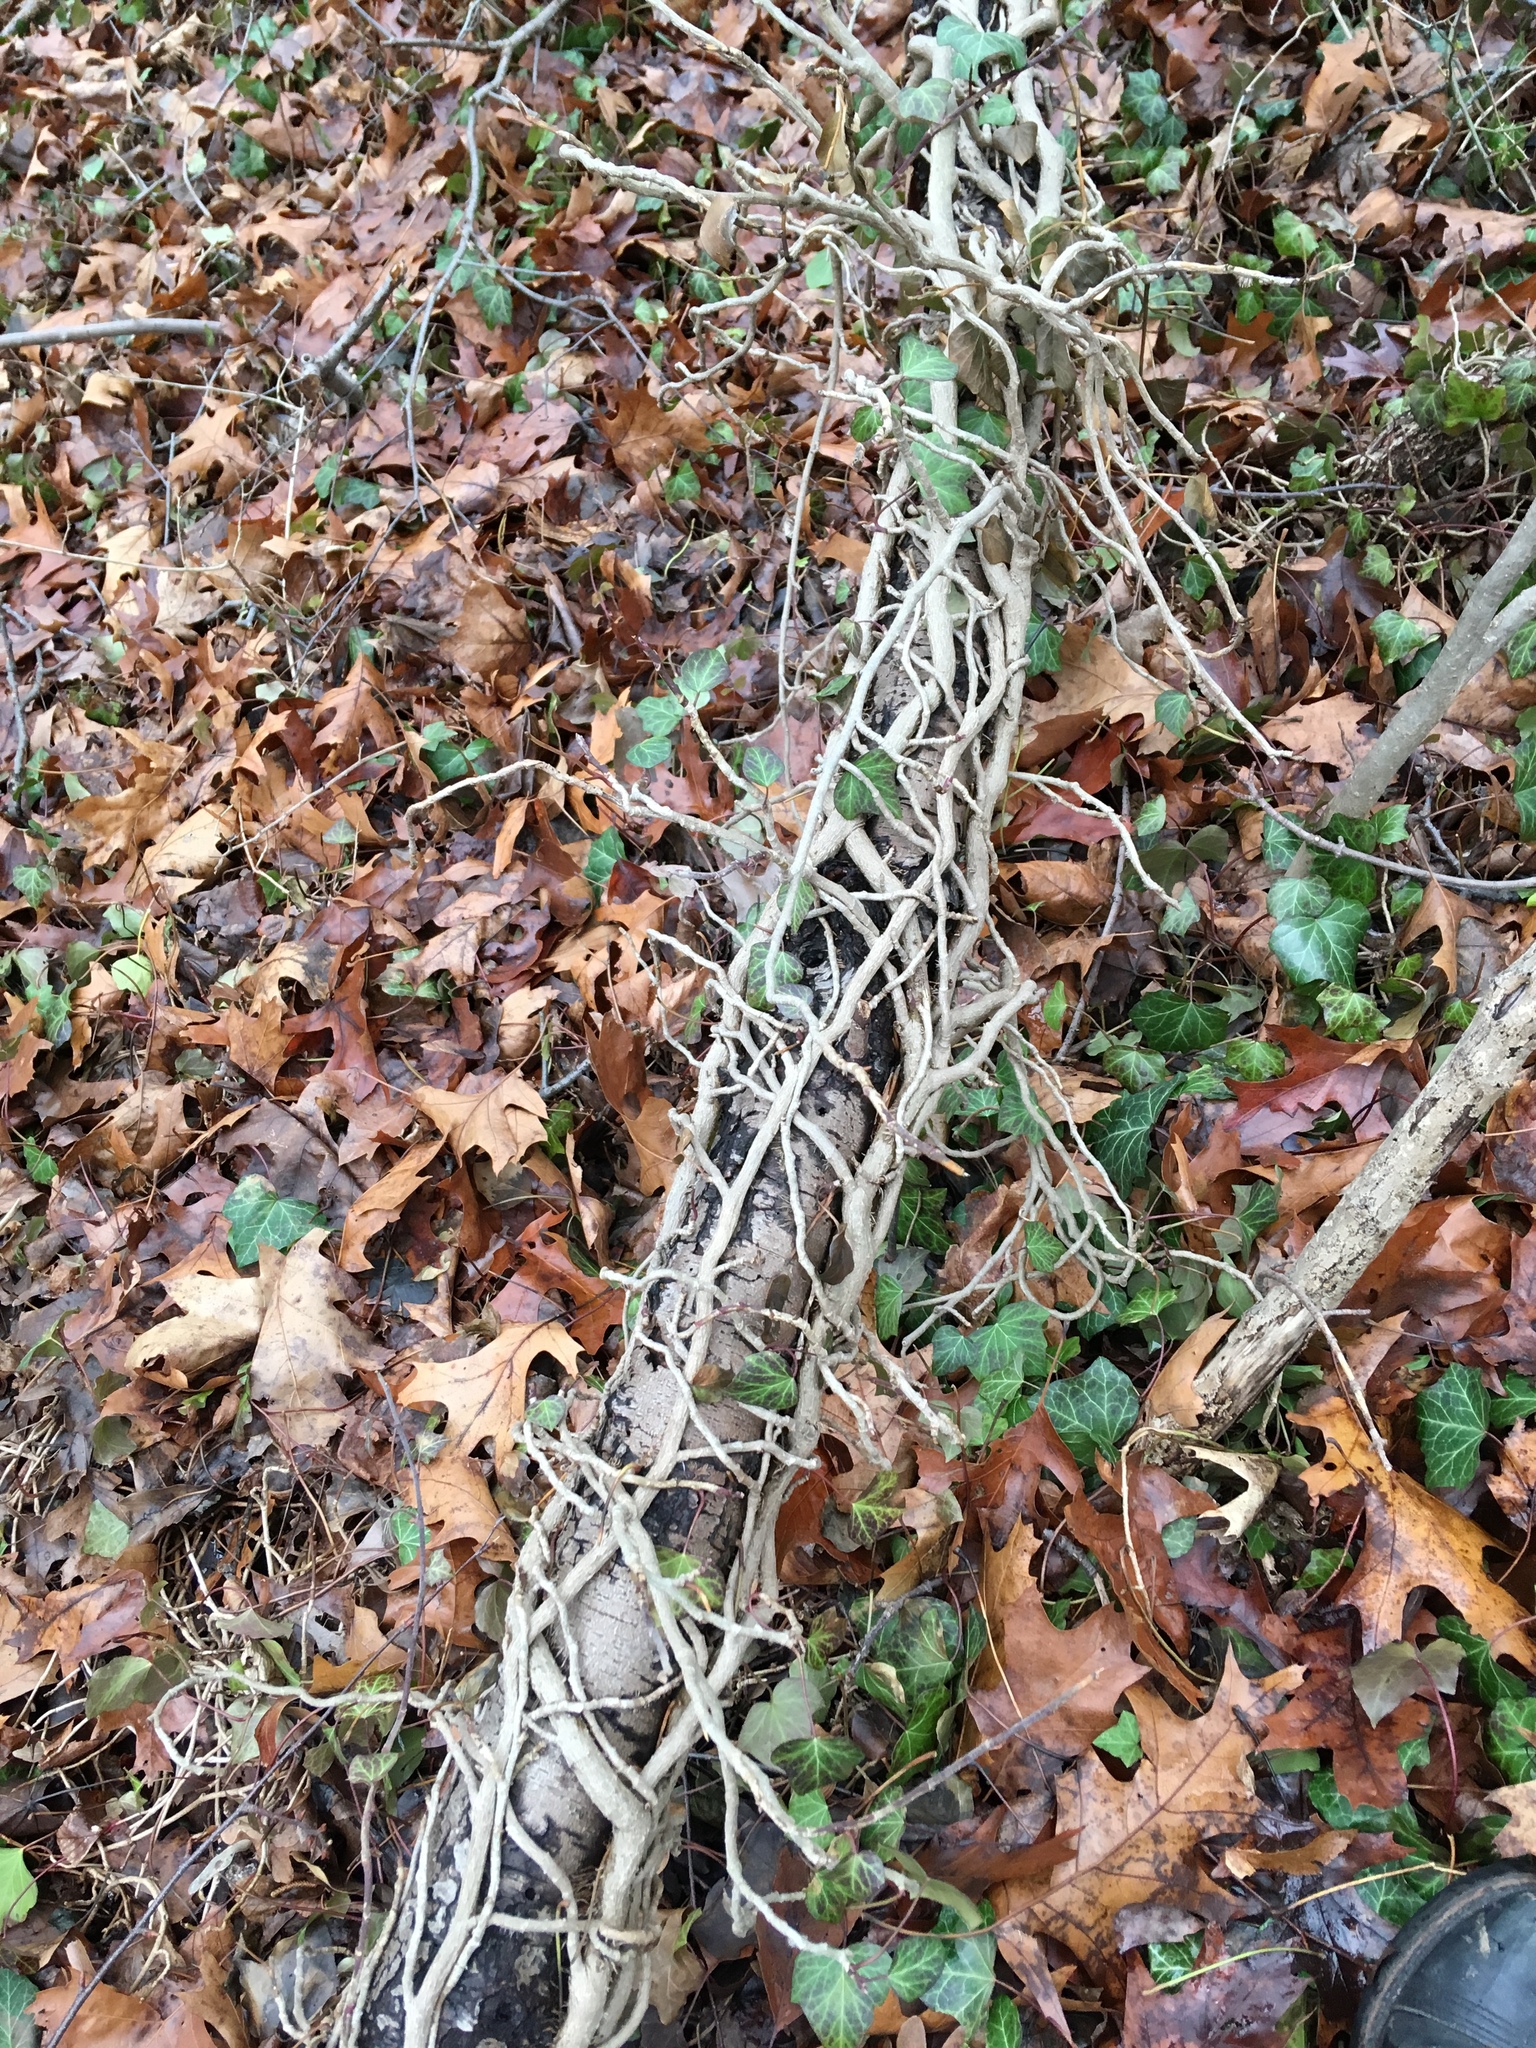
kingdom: Plantae
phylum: Tracheophyta
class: Magnoliopsida
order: Apiales
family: Araliaceae
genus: Hedera
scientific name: Hedera helix
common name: Ivy
